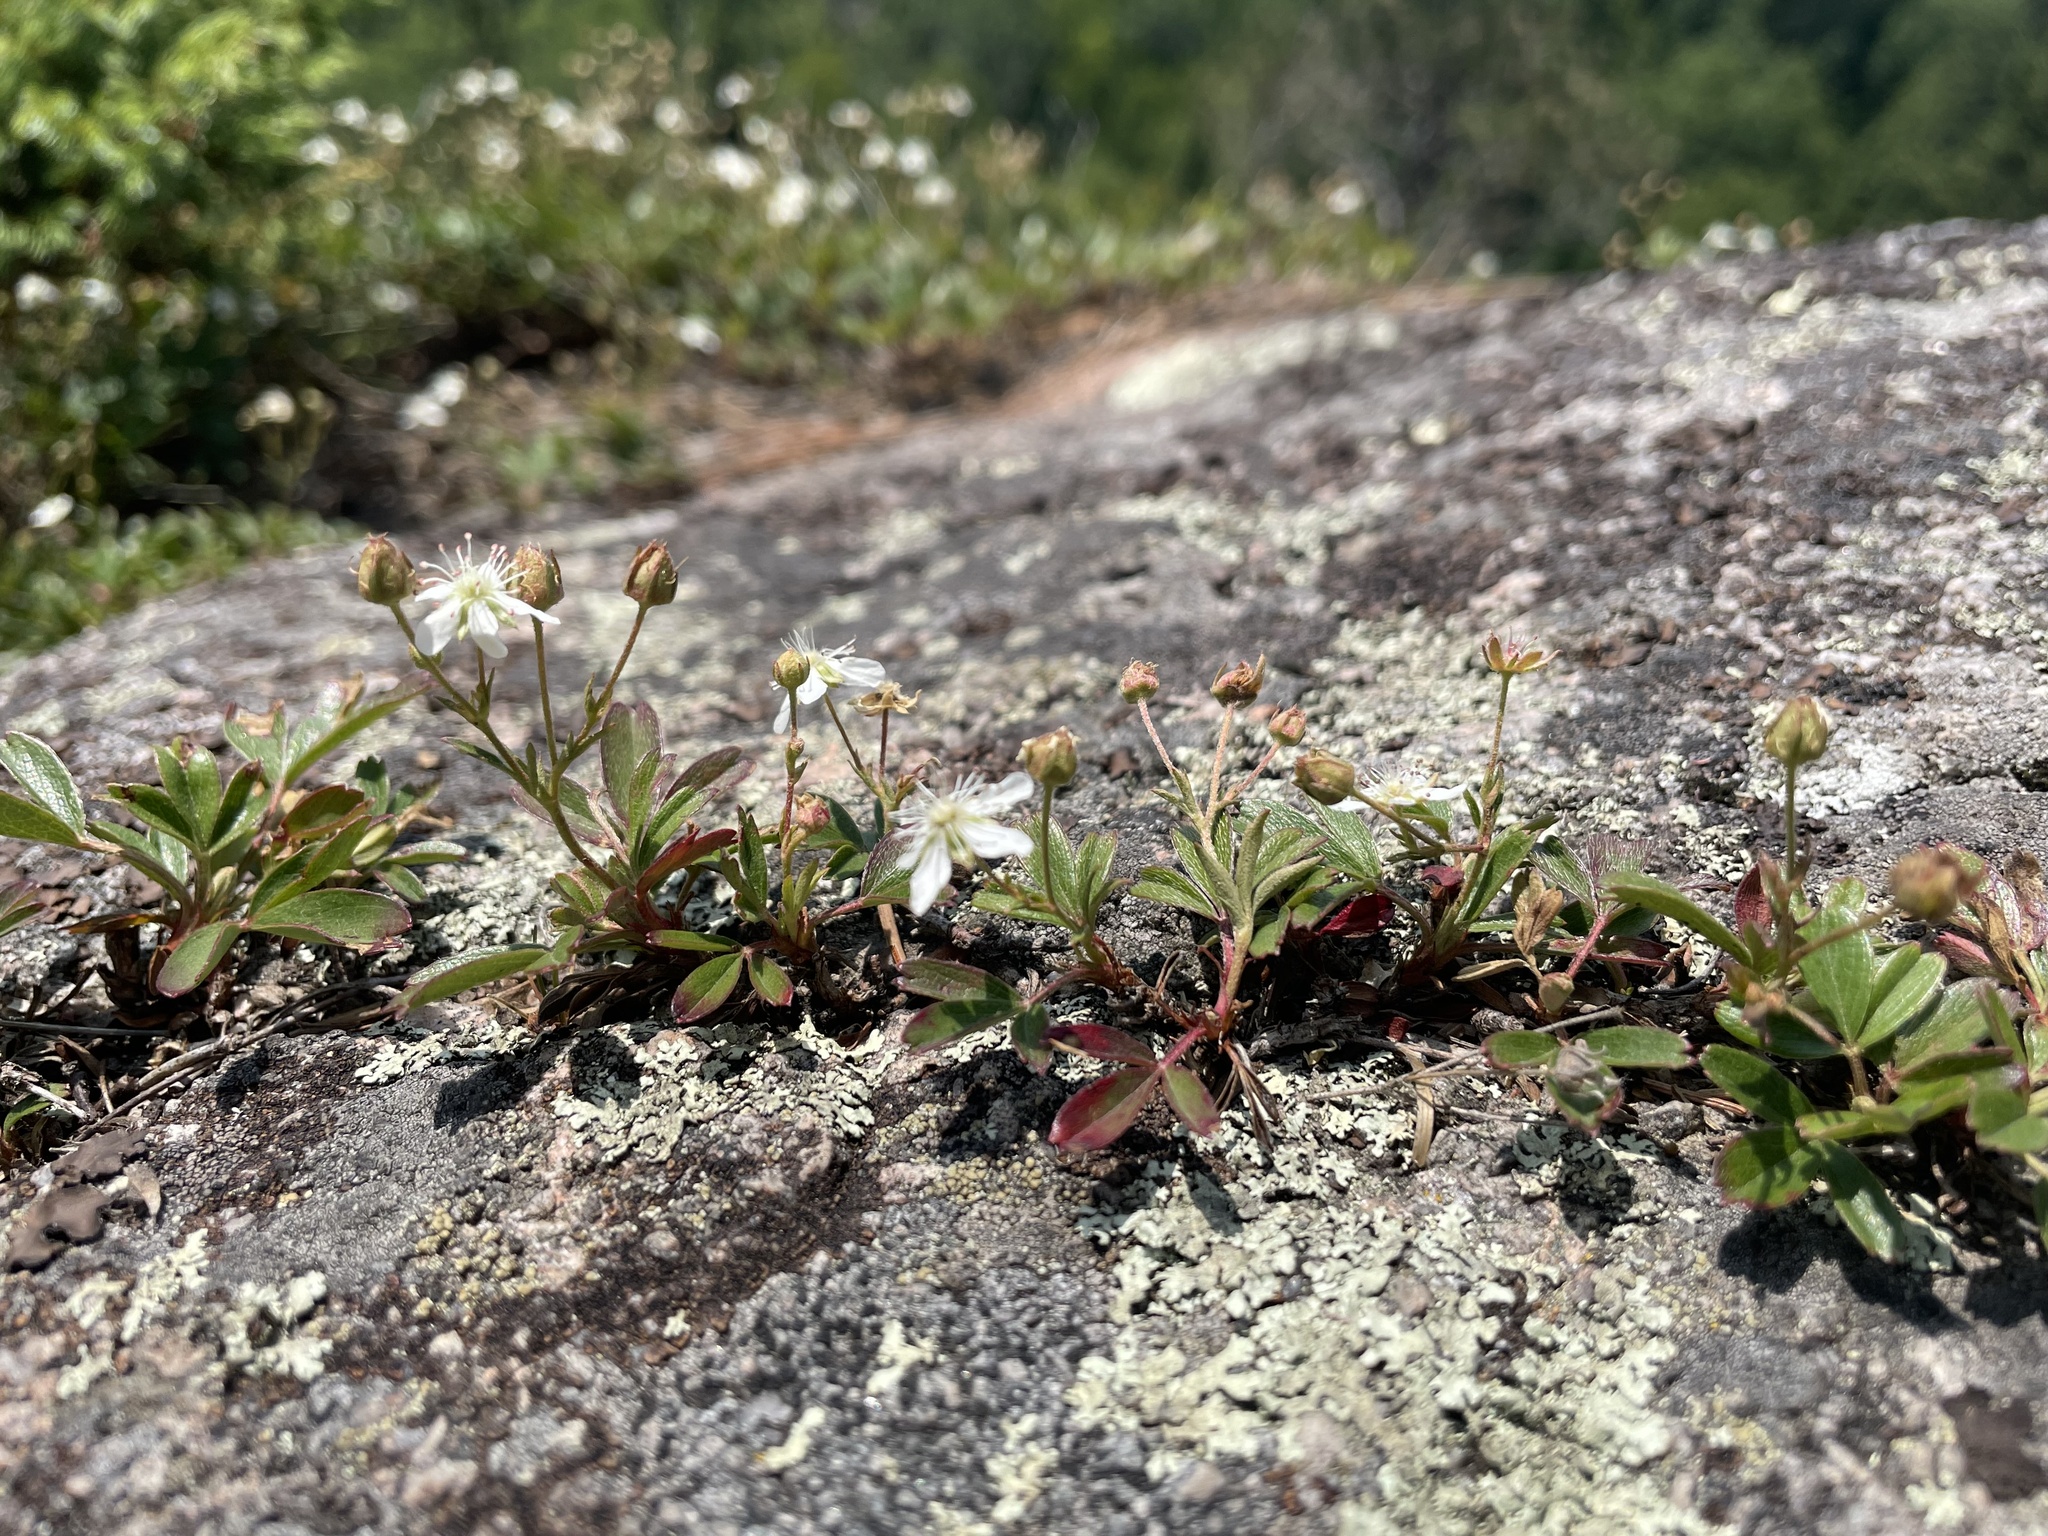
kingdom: Plantae
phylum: Tracheophyta
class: Magnoliopsida
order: Rosales
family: Rosaceae
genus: Sibbaldia
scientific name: Sibbaldia tridentata
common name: Three-toothed cinquefoil
